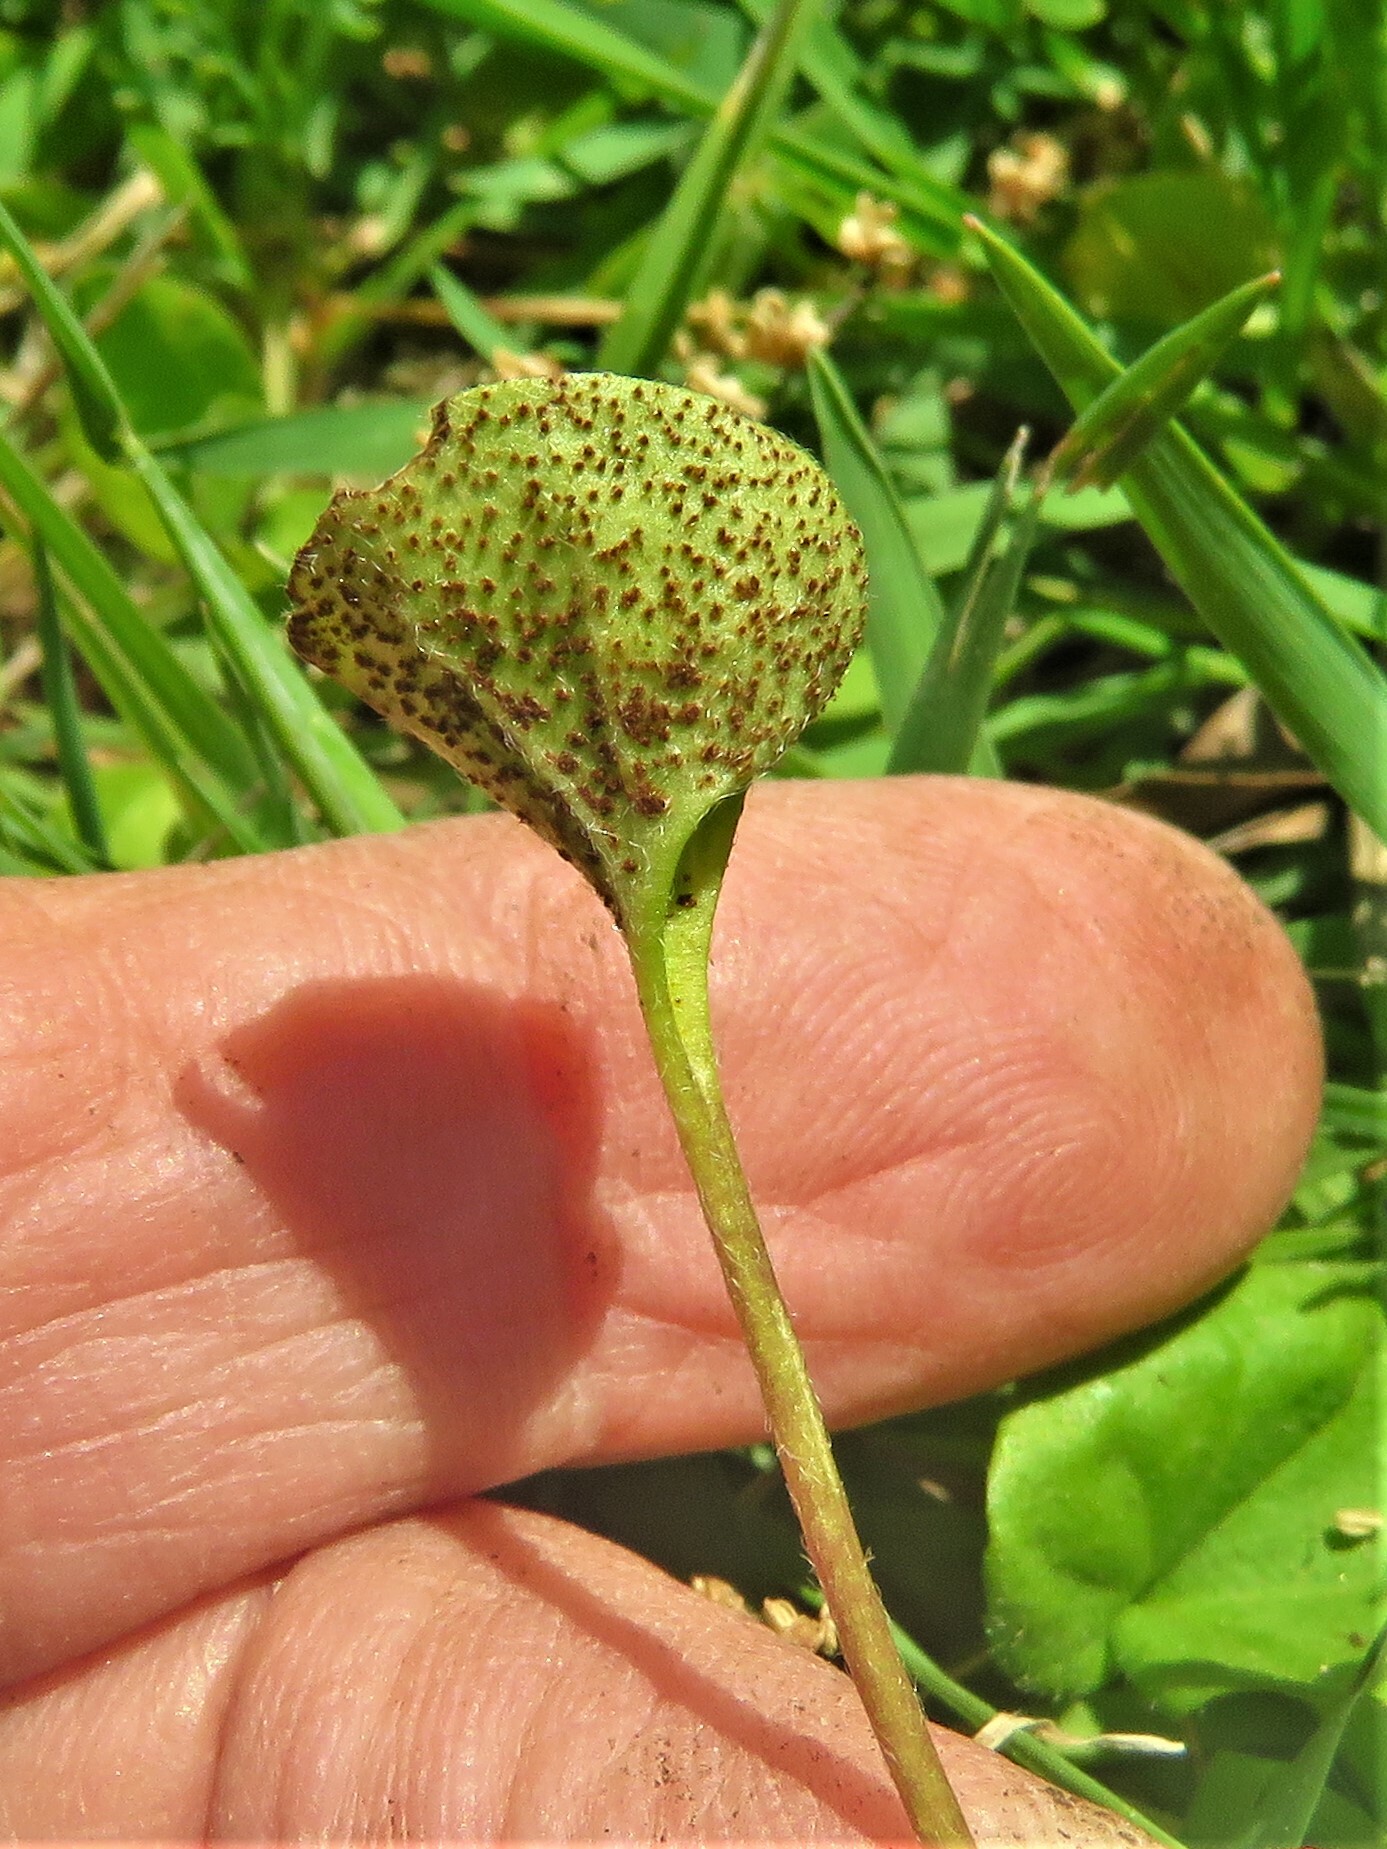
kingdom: Fungi
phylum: Basidiomycota
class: Pucciniomycetes
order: Pucciniales
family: Pucciniaceae
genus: Puccinia
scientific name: Puccinia dichondrae
